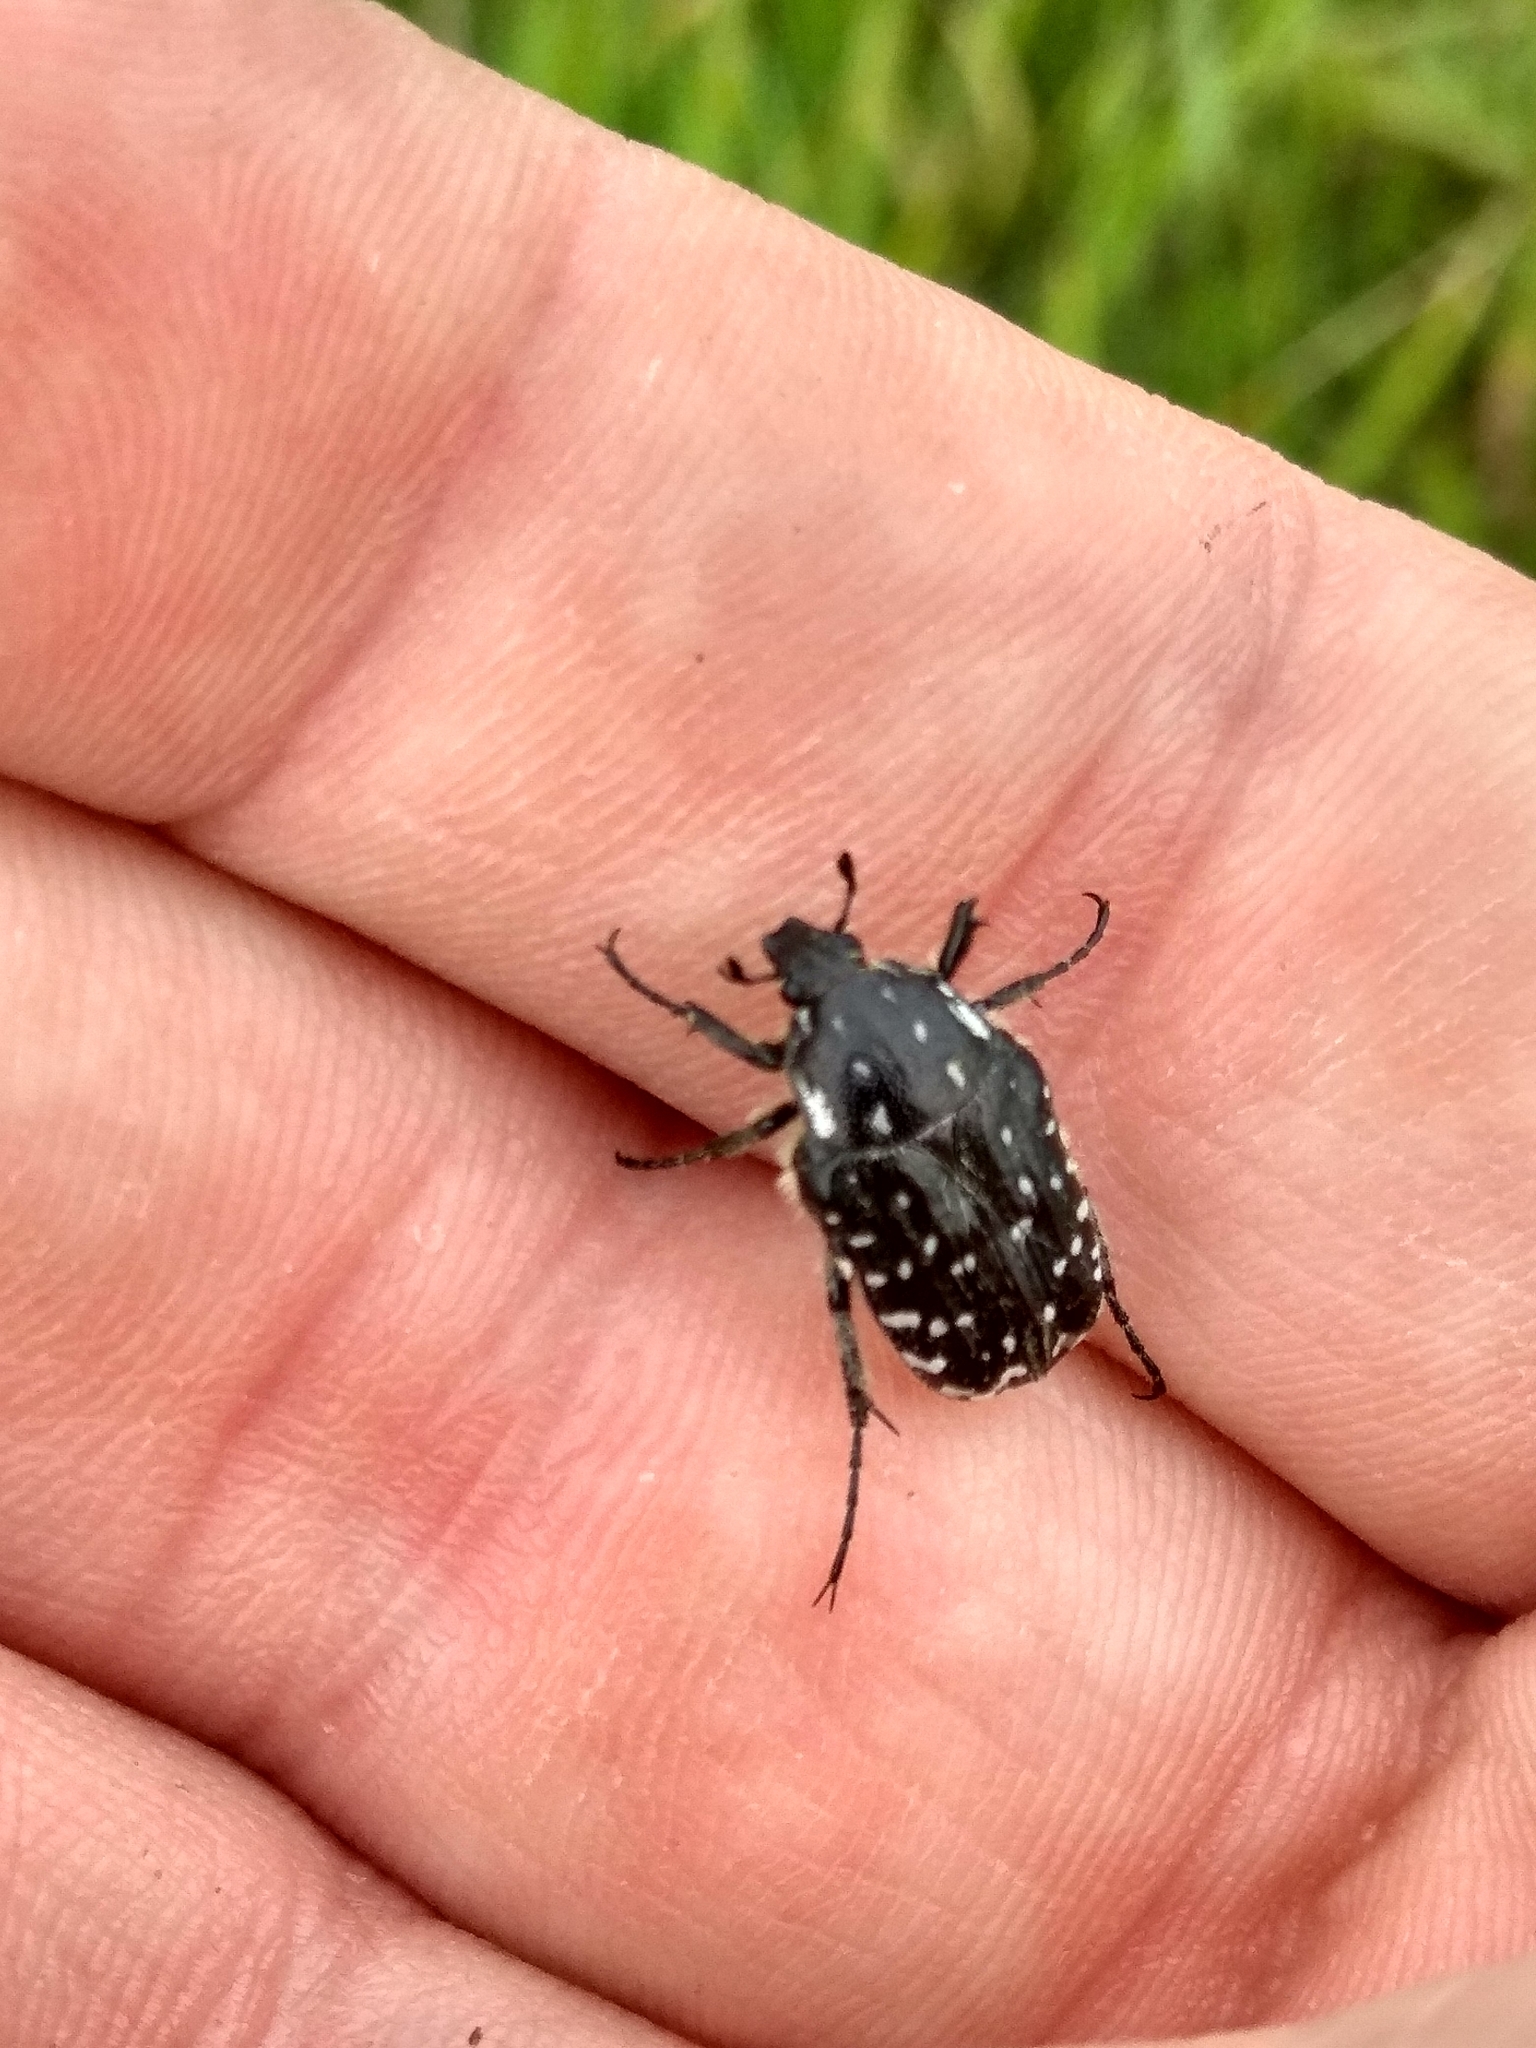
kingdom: Animalia
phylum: Arthropoda
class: Insecta
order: Coleoptera
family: Scarabaeidae
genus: Oxythyrea
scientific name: Oxythyrea funesta
